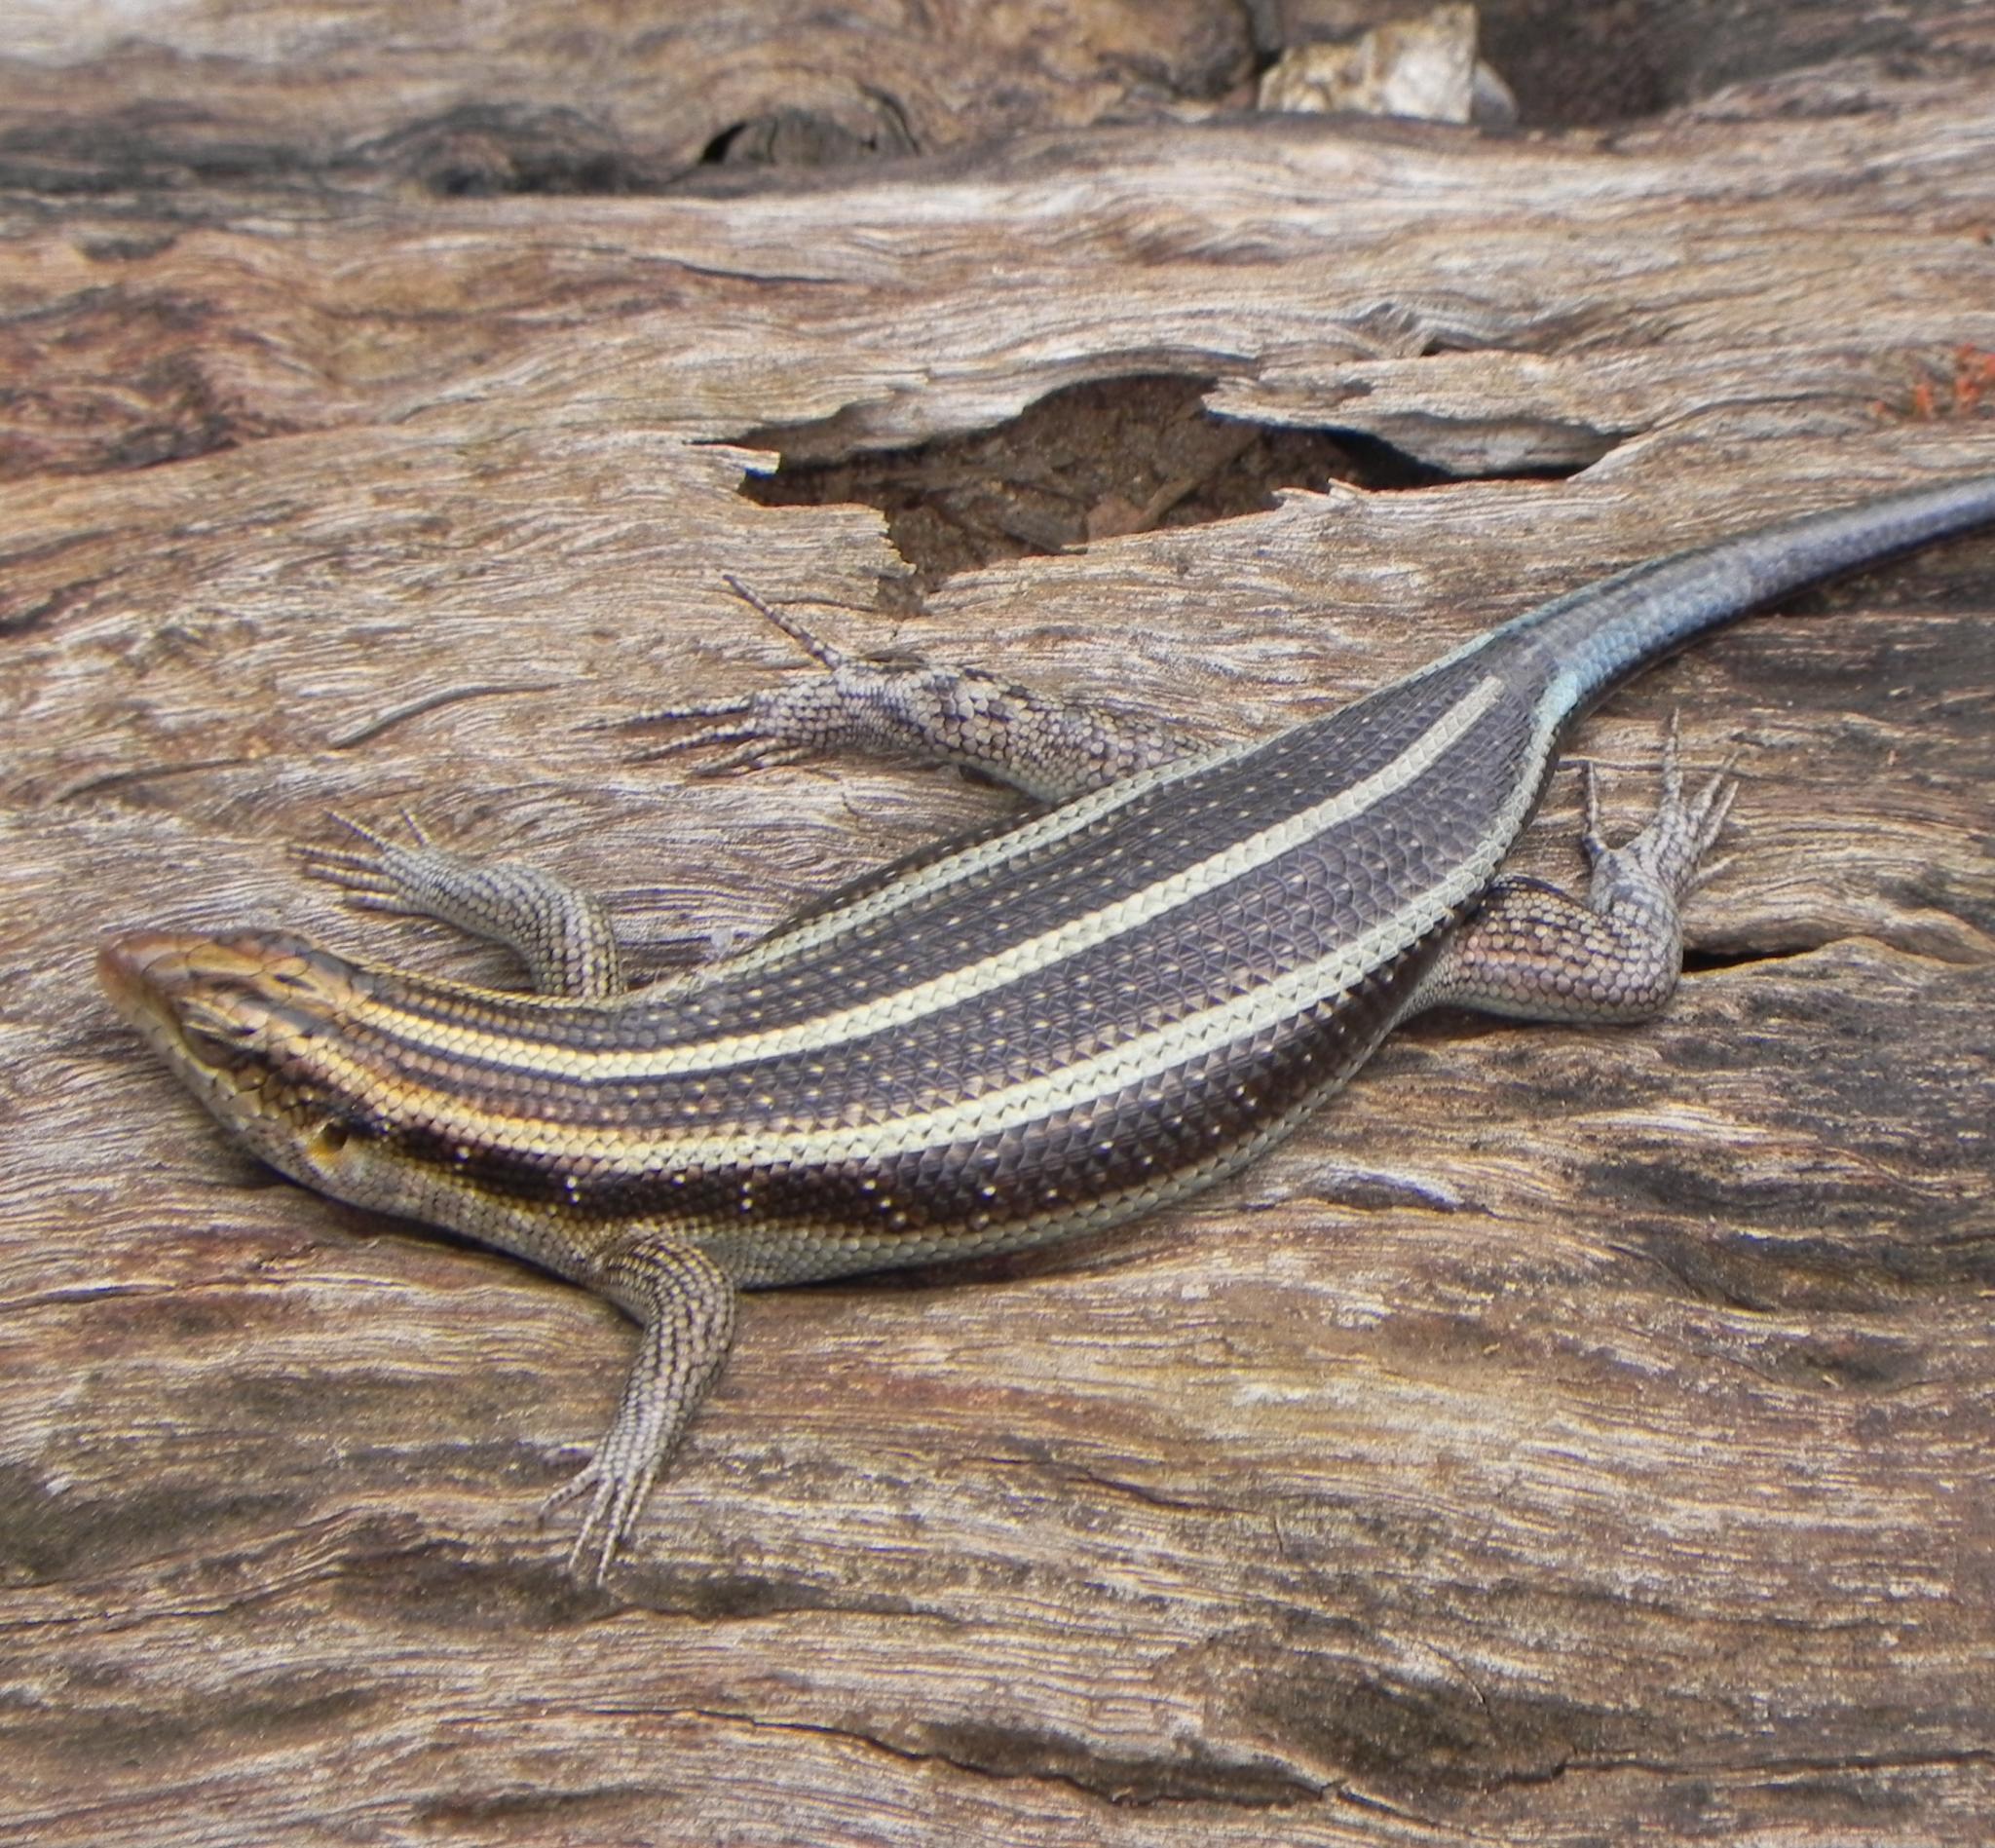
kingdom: Animalia
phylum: Chordata
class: Squamata
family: Scincidae
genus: Trachylepis
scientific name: Trachylepis margaritifera
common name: Rainbow skink
